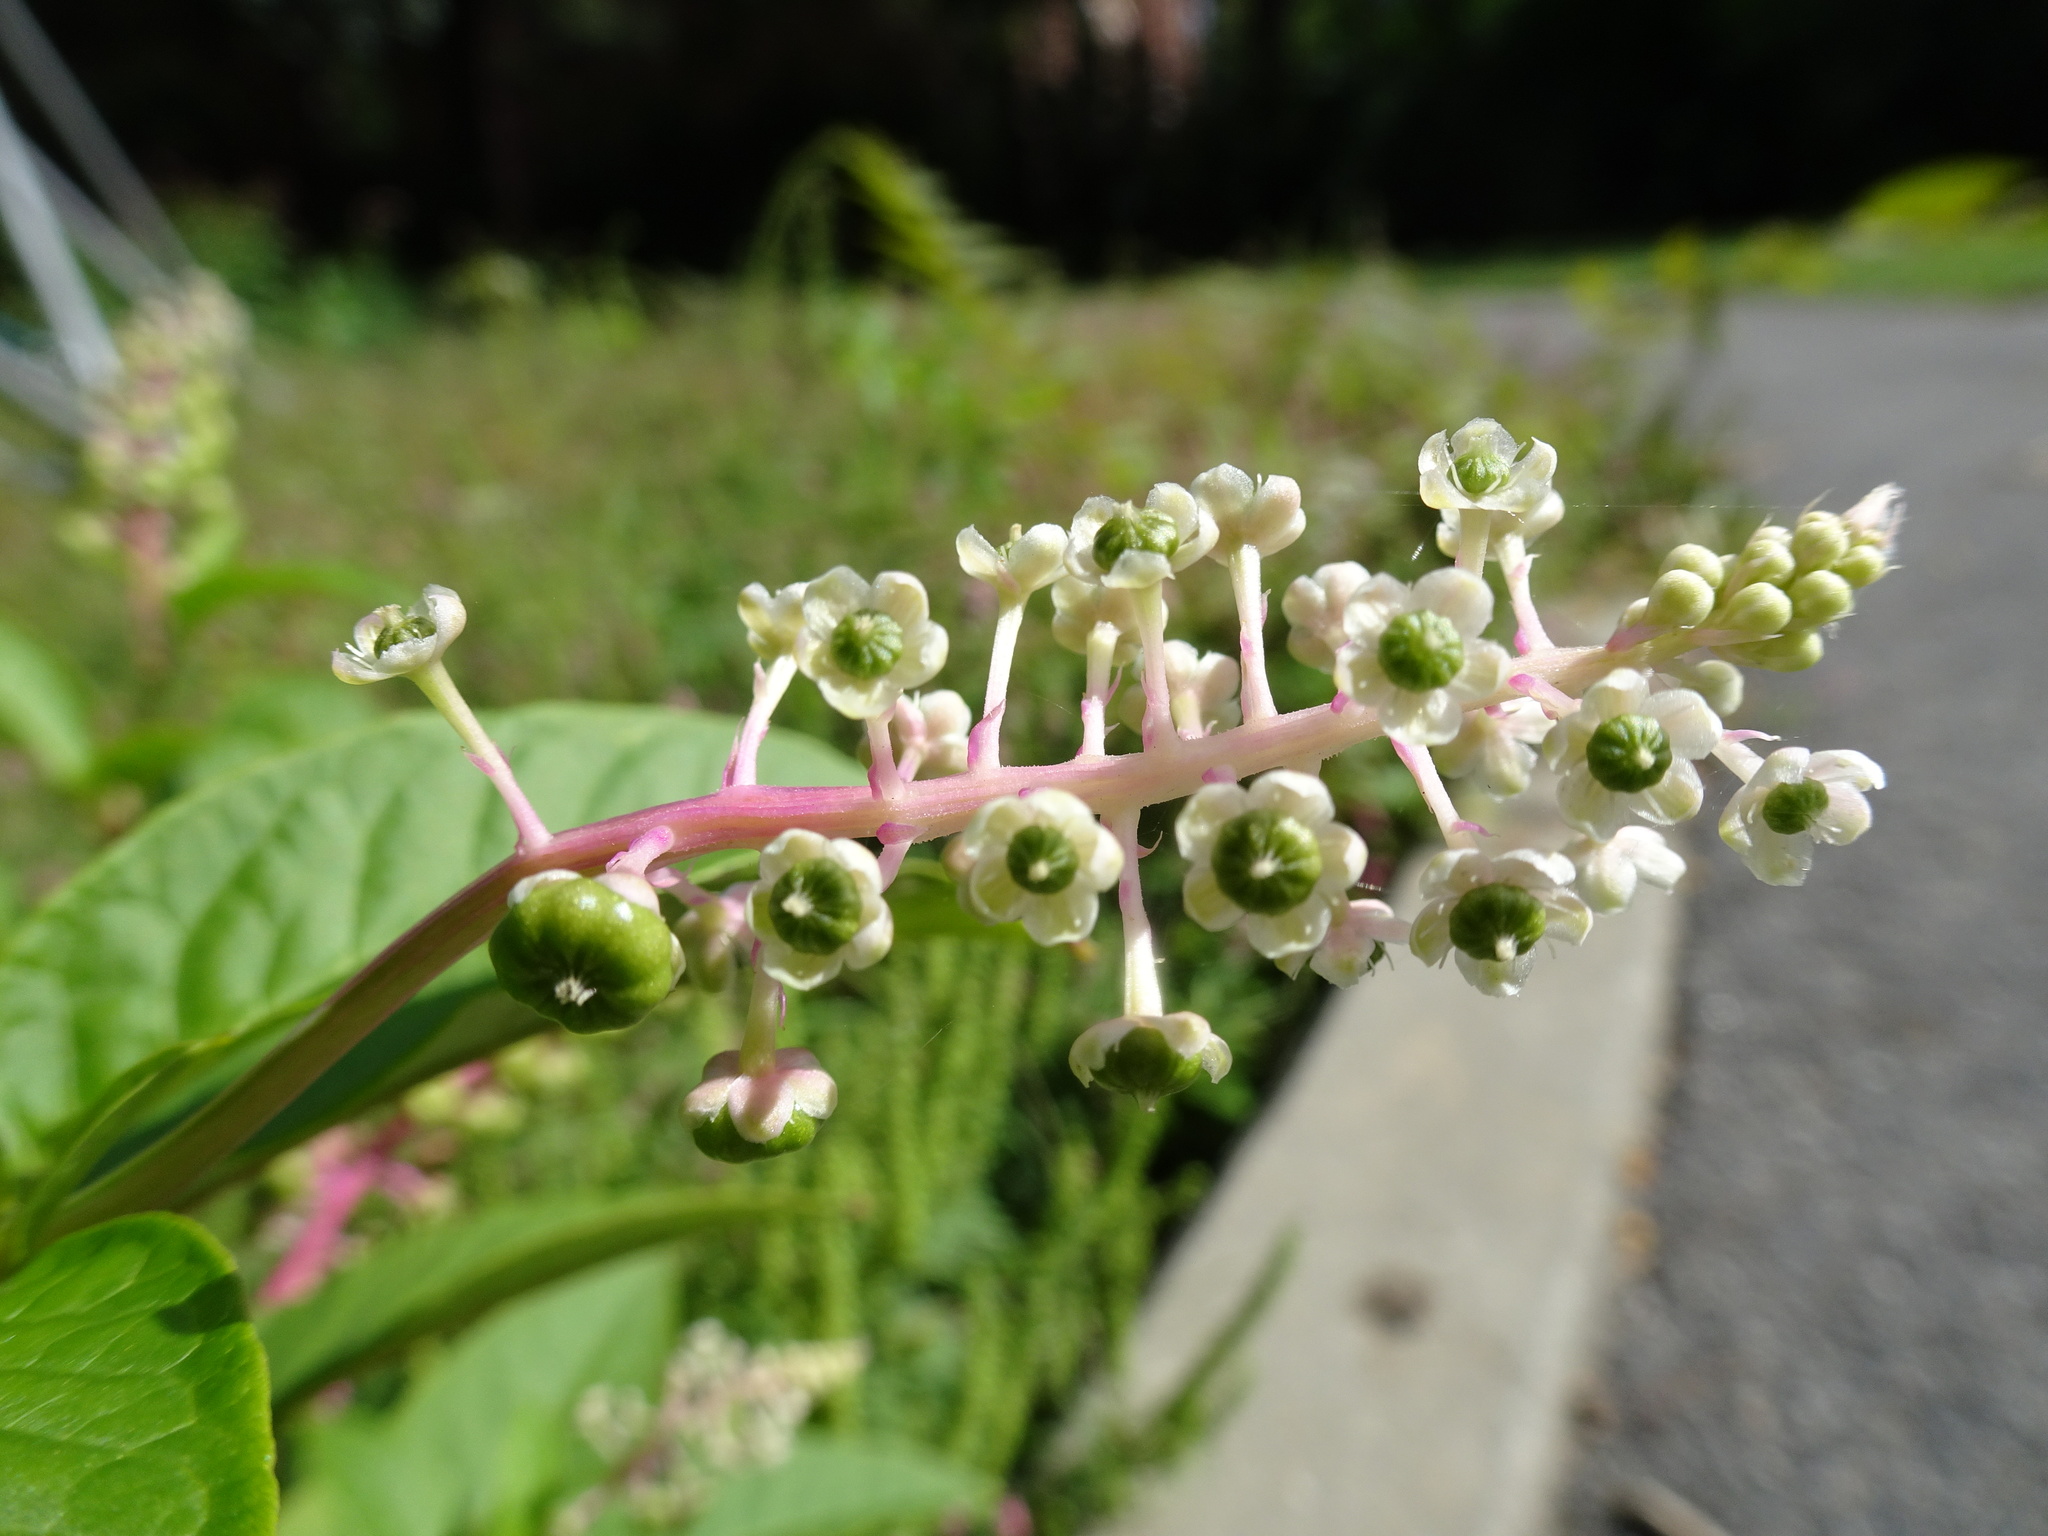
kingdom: Plantae
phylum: Tracheophyta
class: Magnoliopsida
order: Caryophyllales
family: Phytolaccaceae
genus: Phytolacca
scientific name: Phytolacca americana
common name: American pokeweed
